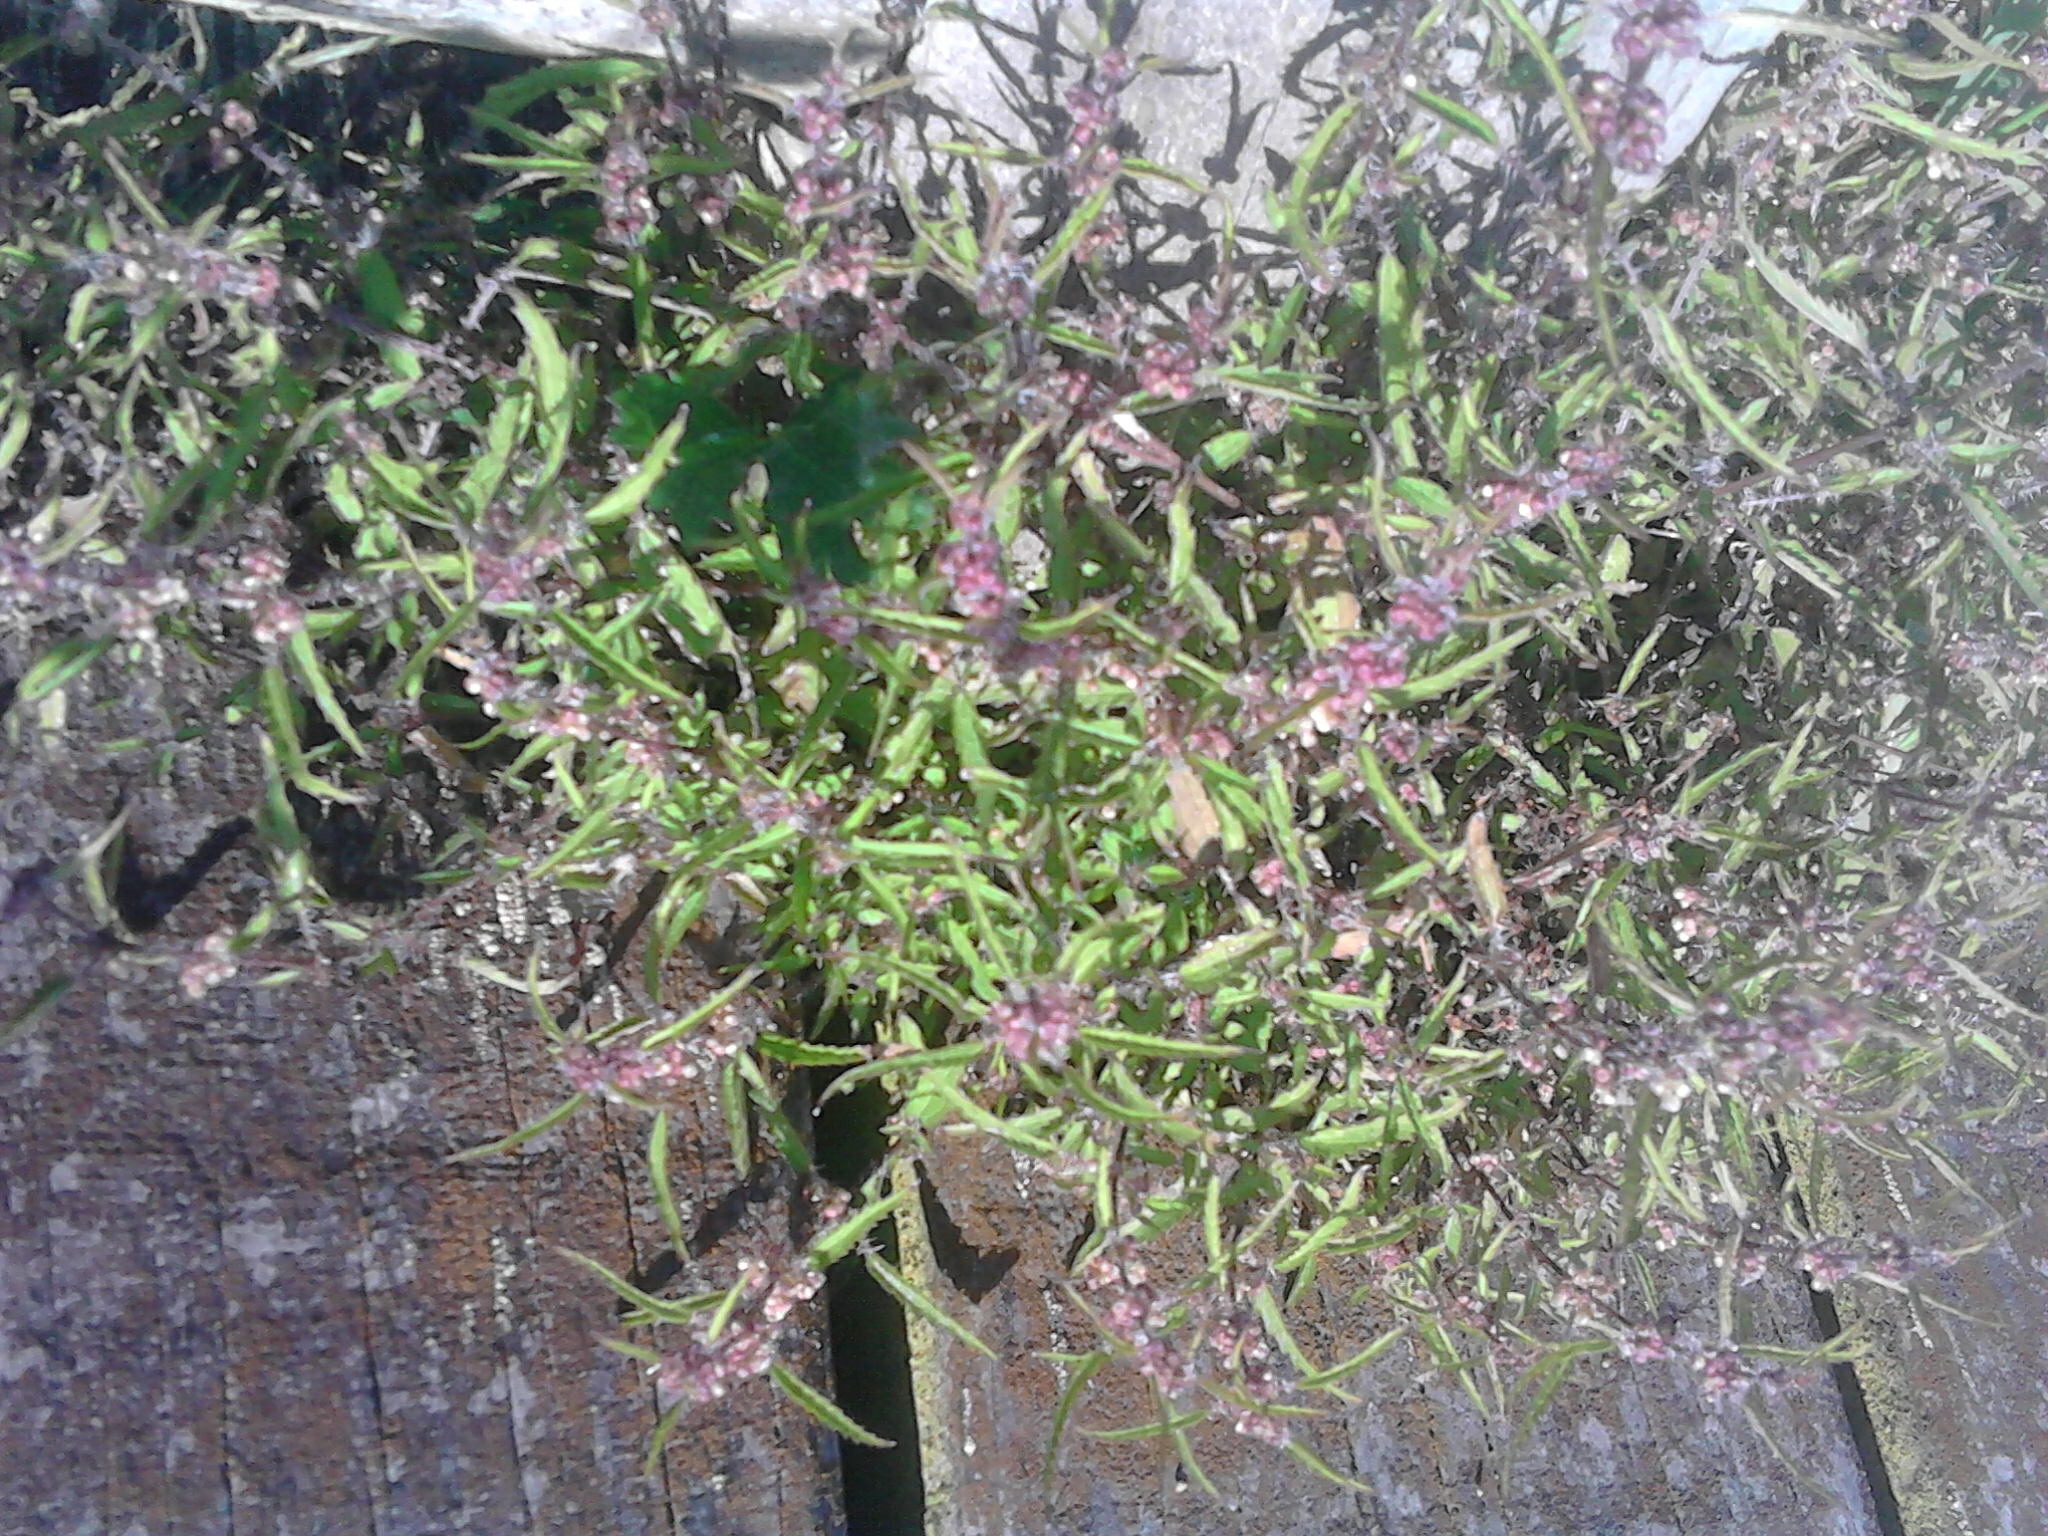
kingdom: Plantae
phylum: Tracheophyta
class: Magnoliopsida
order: Rosales
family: Urticaceae
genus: Urtica
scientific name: Urtica perconfusa
